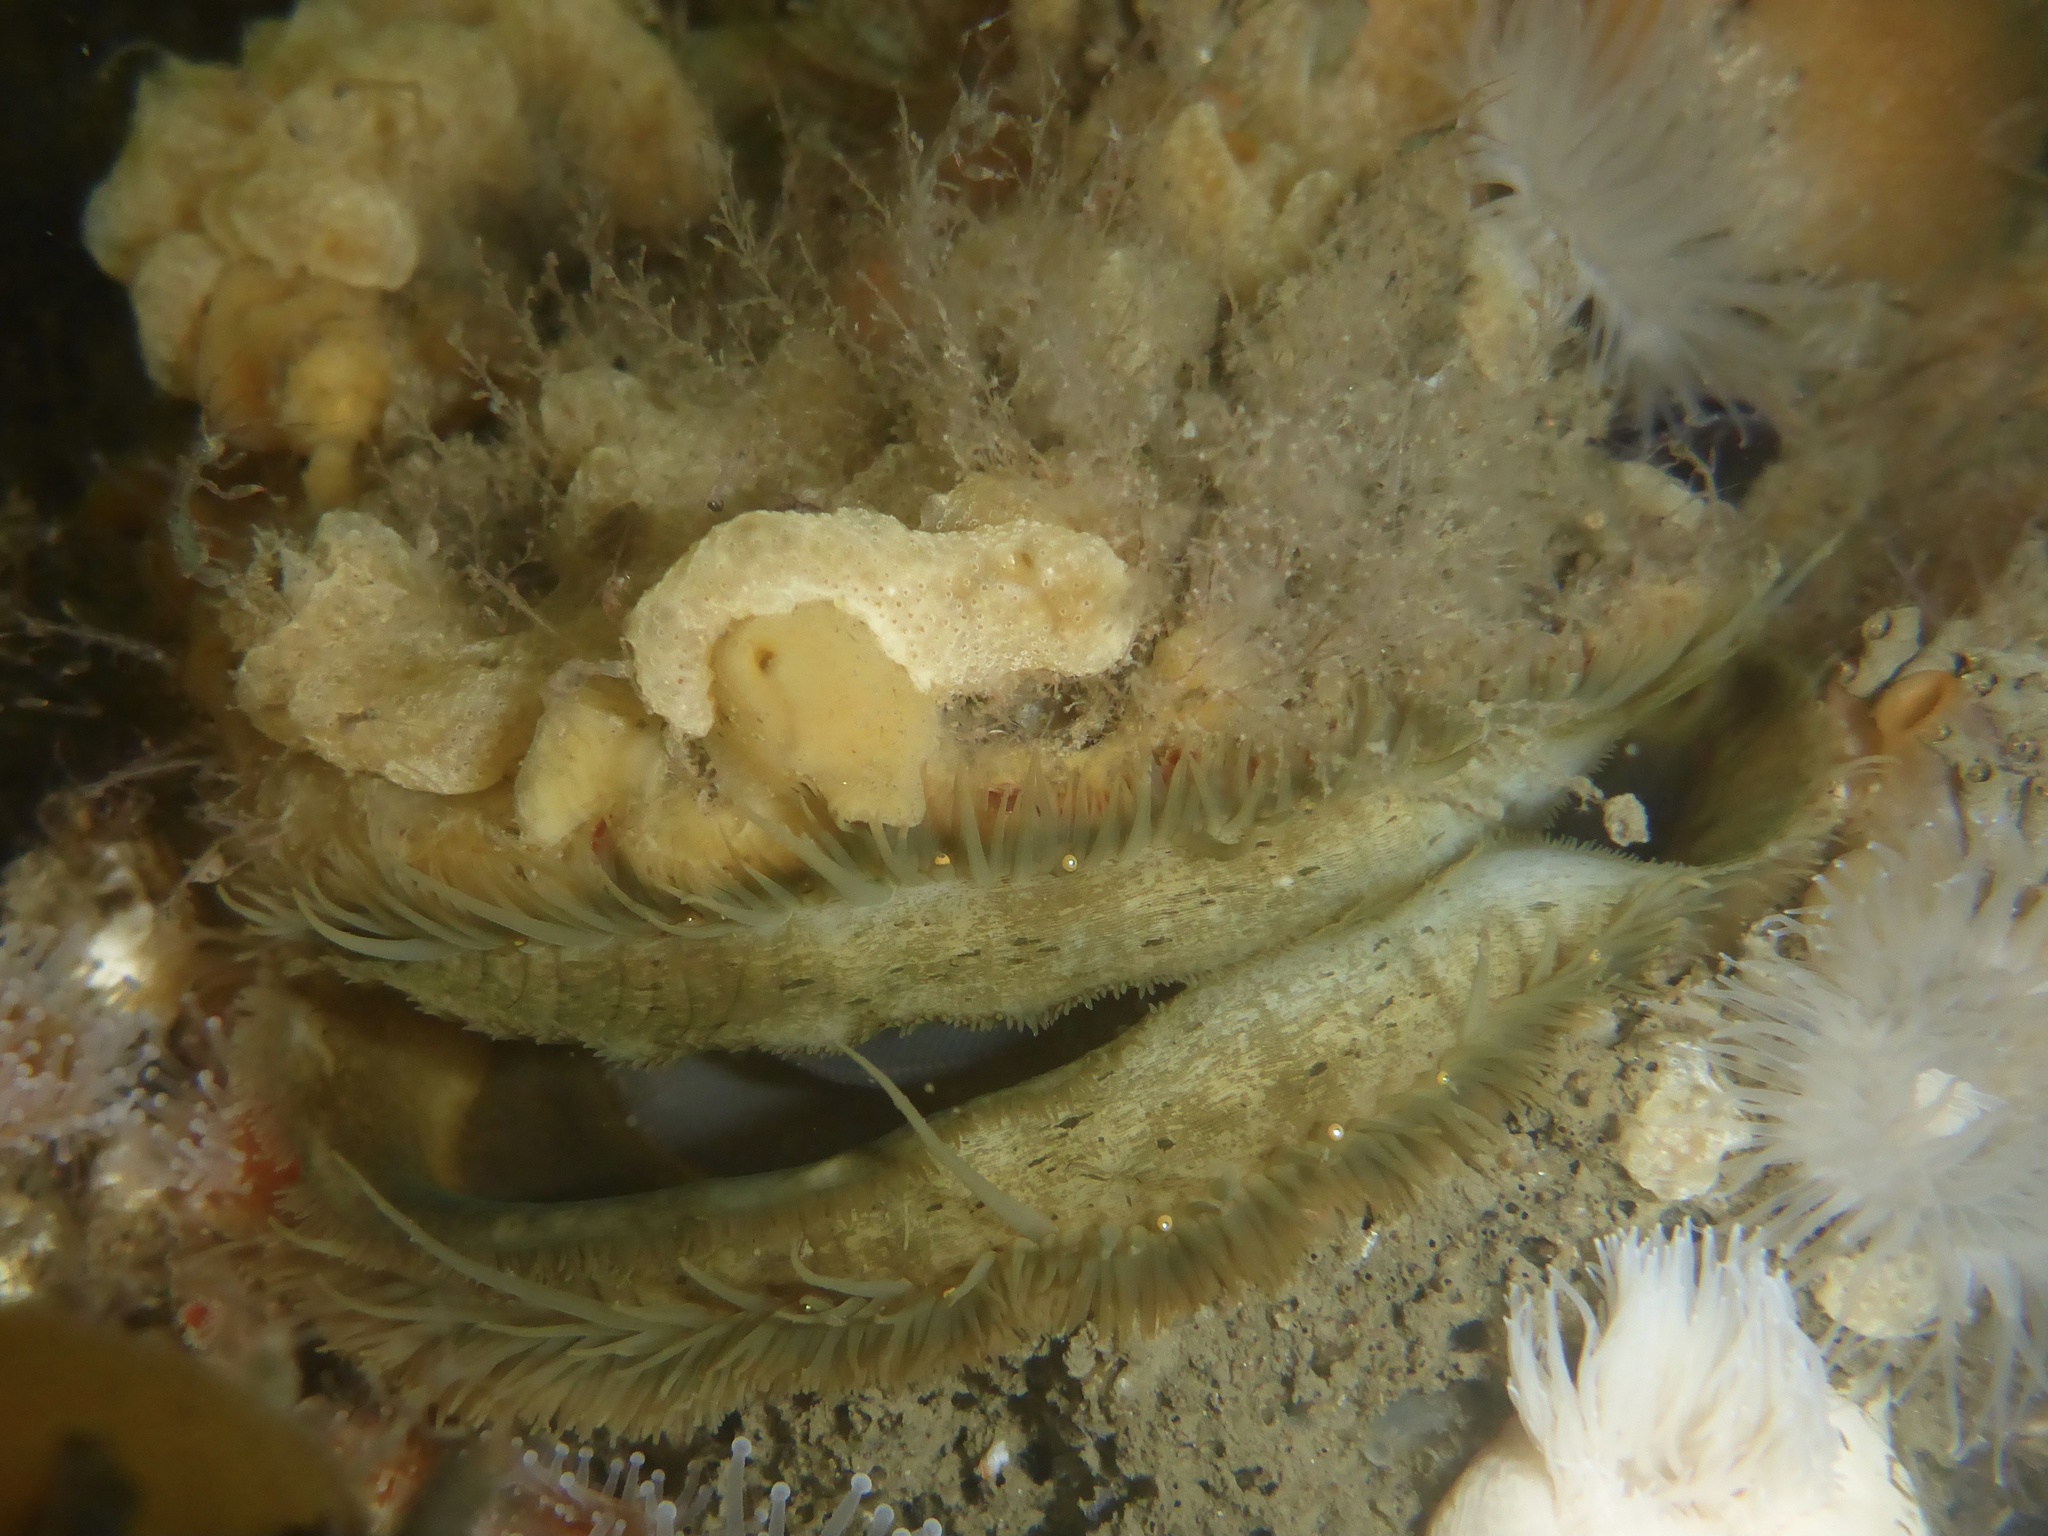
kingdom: Animalia
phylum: Mollusca
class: Bivalvia
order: Pectinida
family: Pectinidae
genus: Crassadoma
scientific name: Crassadoma gigantea
